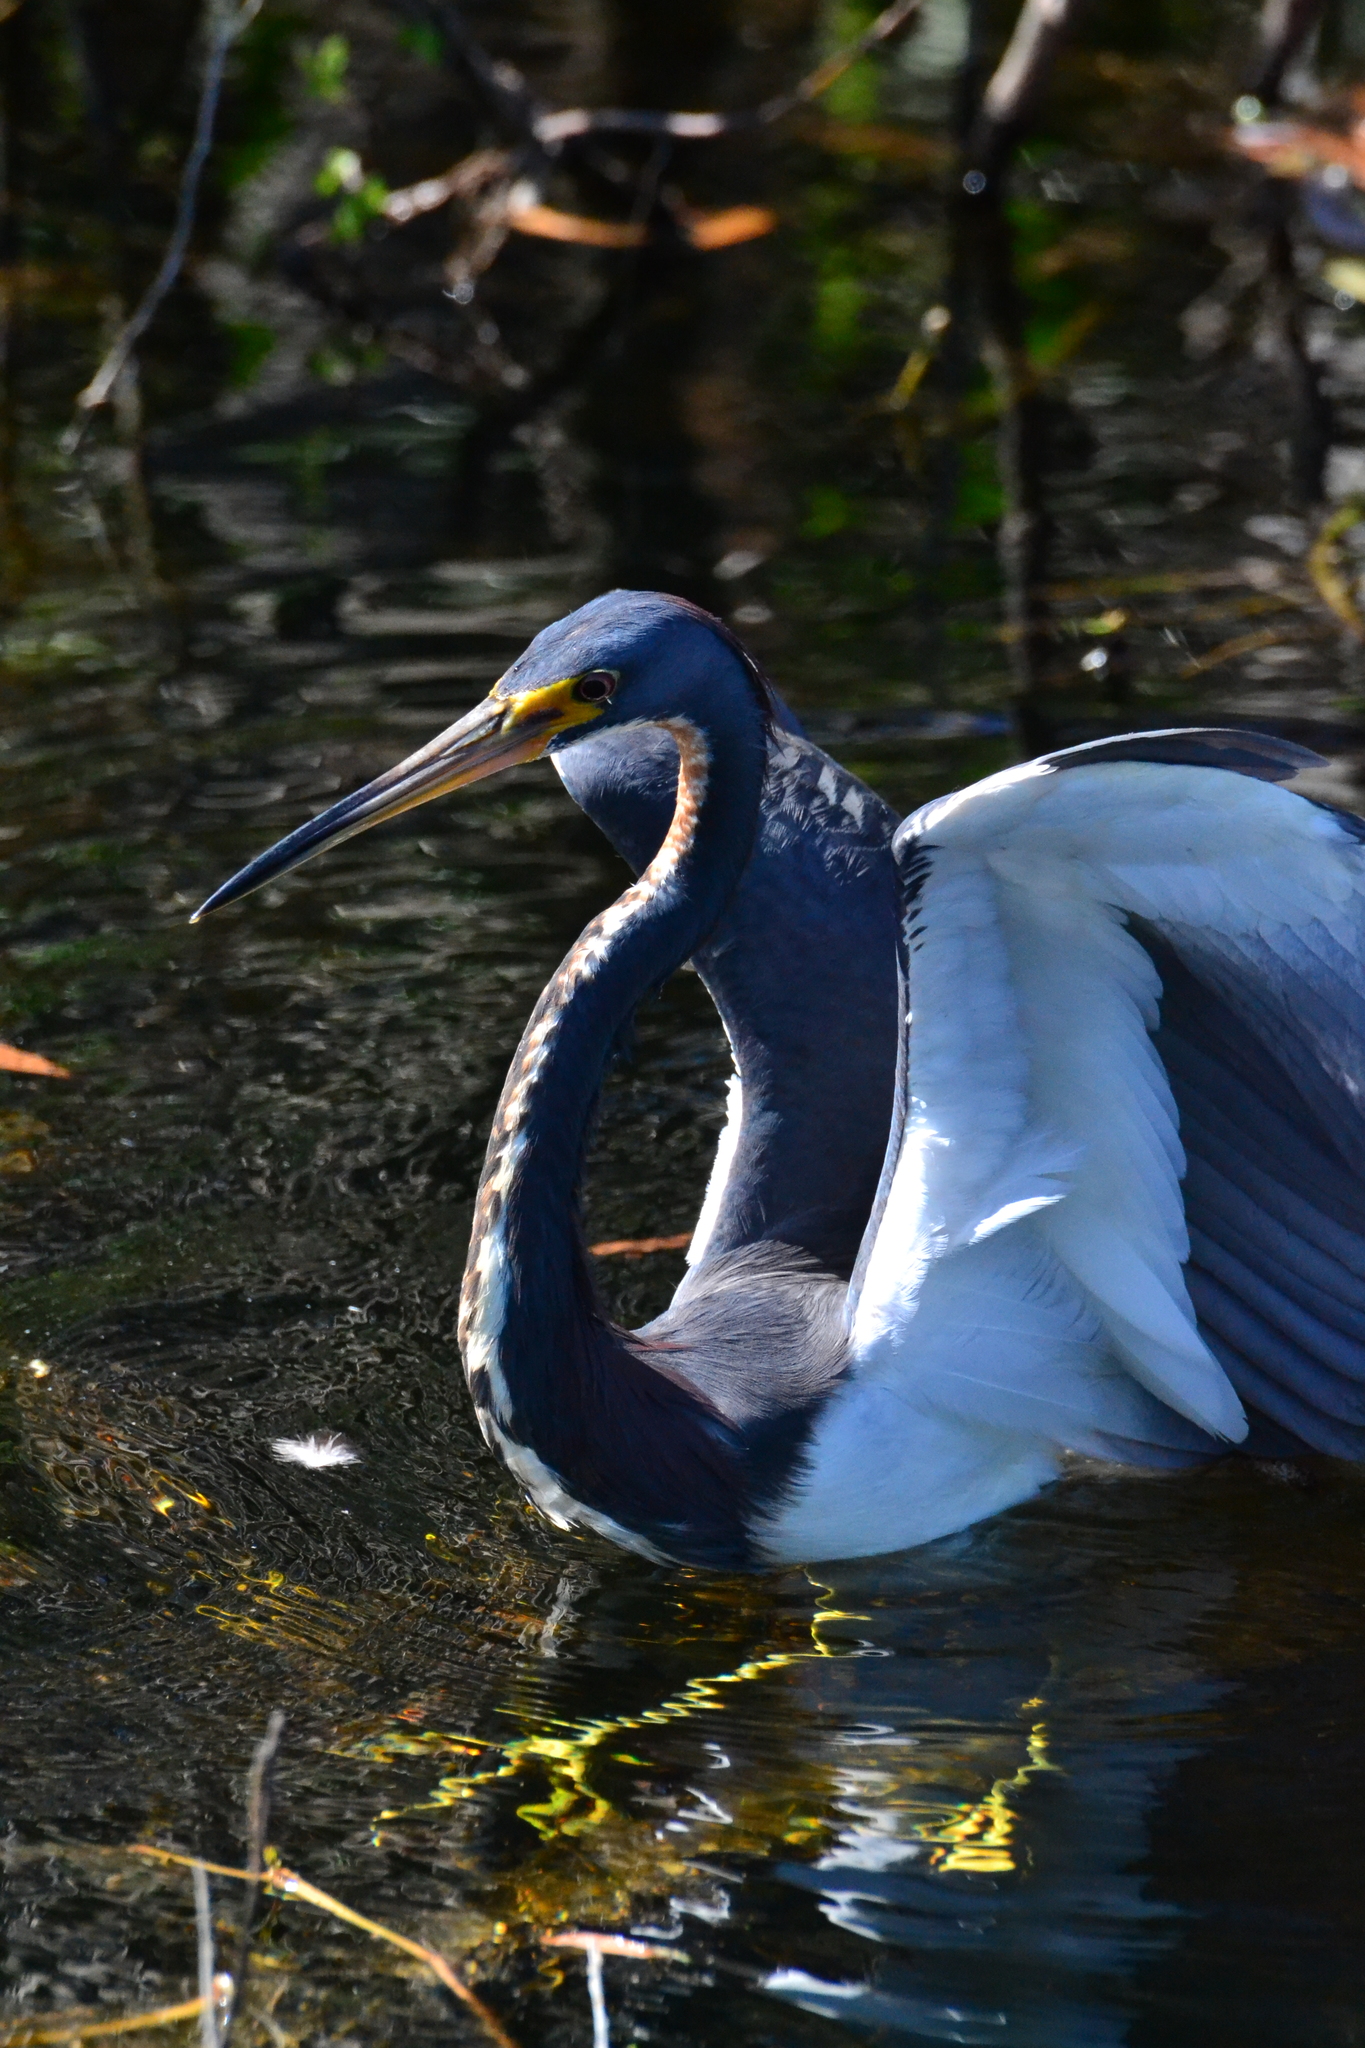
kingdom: Animalia
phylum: Chordata
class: Aves
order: Pelecaniformes
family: Ardeidae
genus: Egretta
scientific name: Egretta tricolor
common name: Tricolored heron
